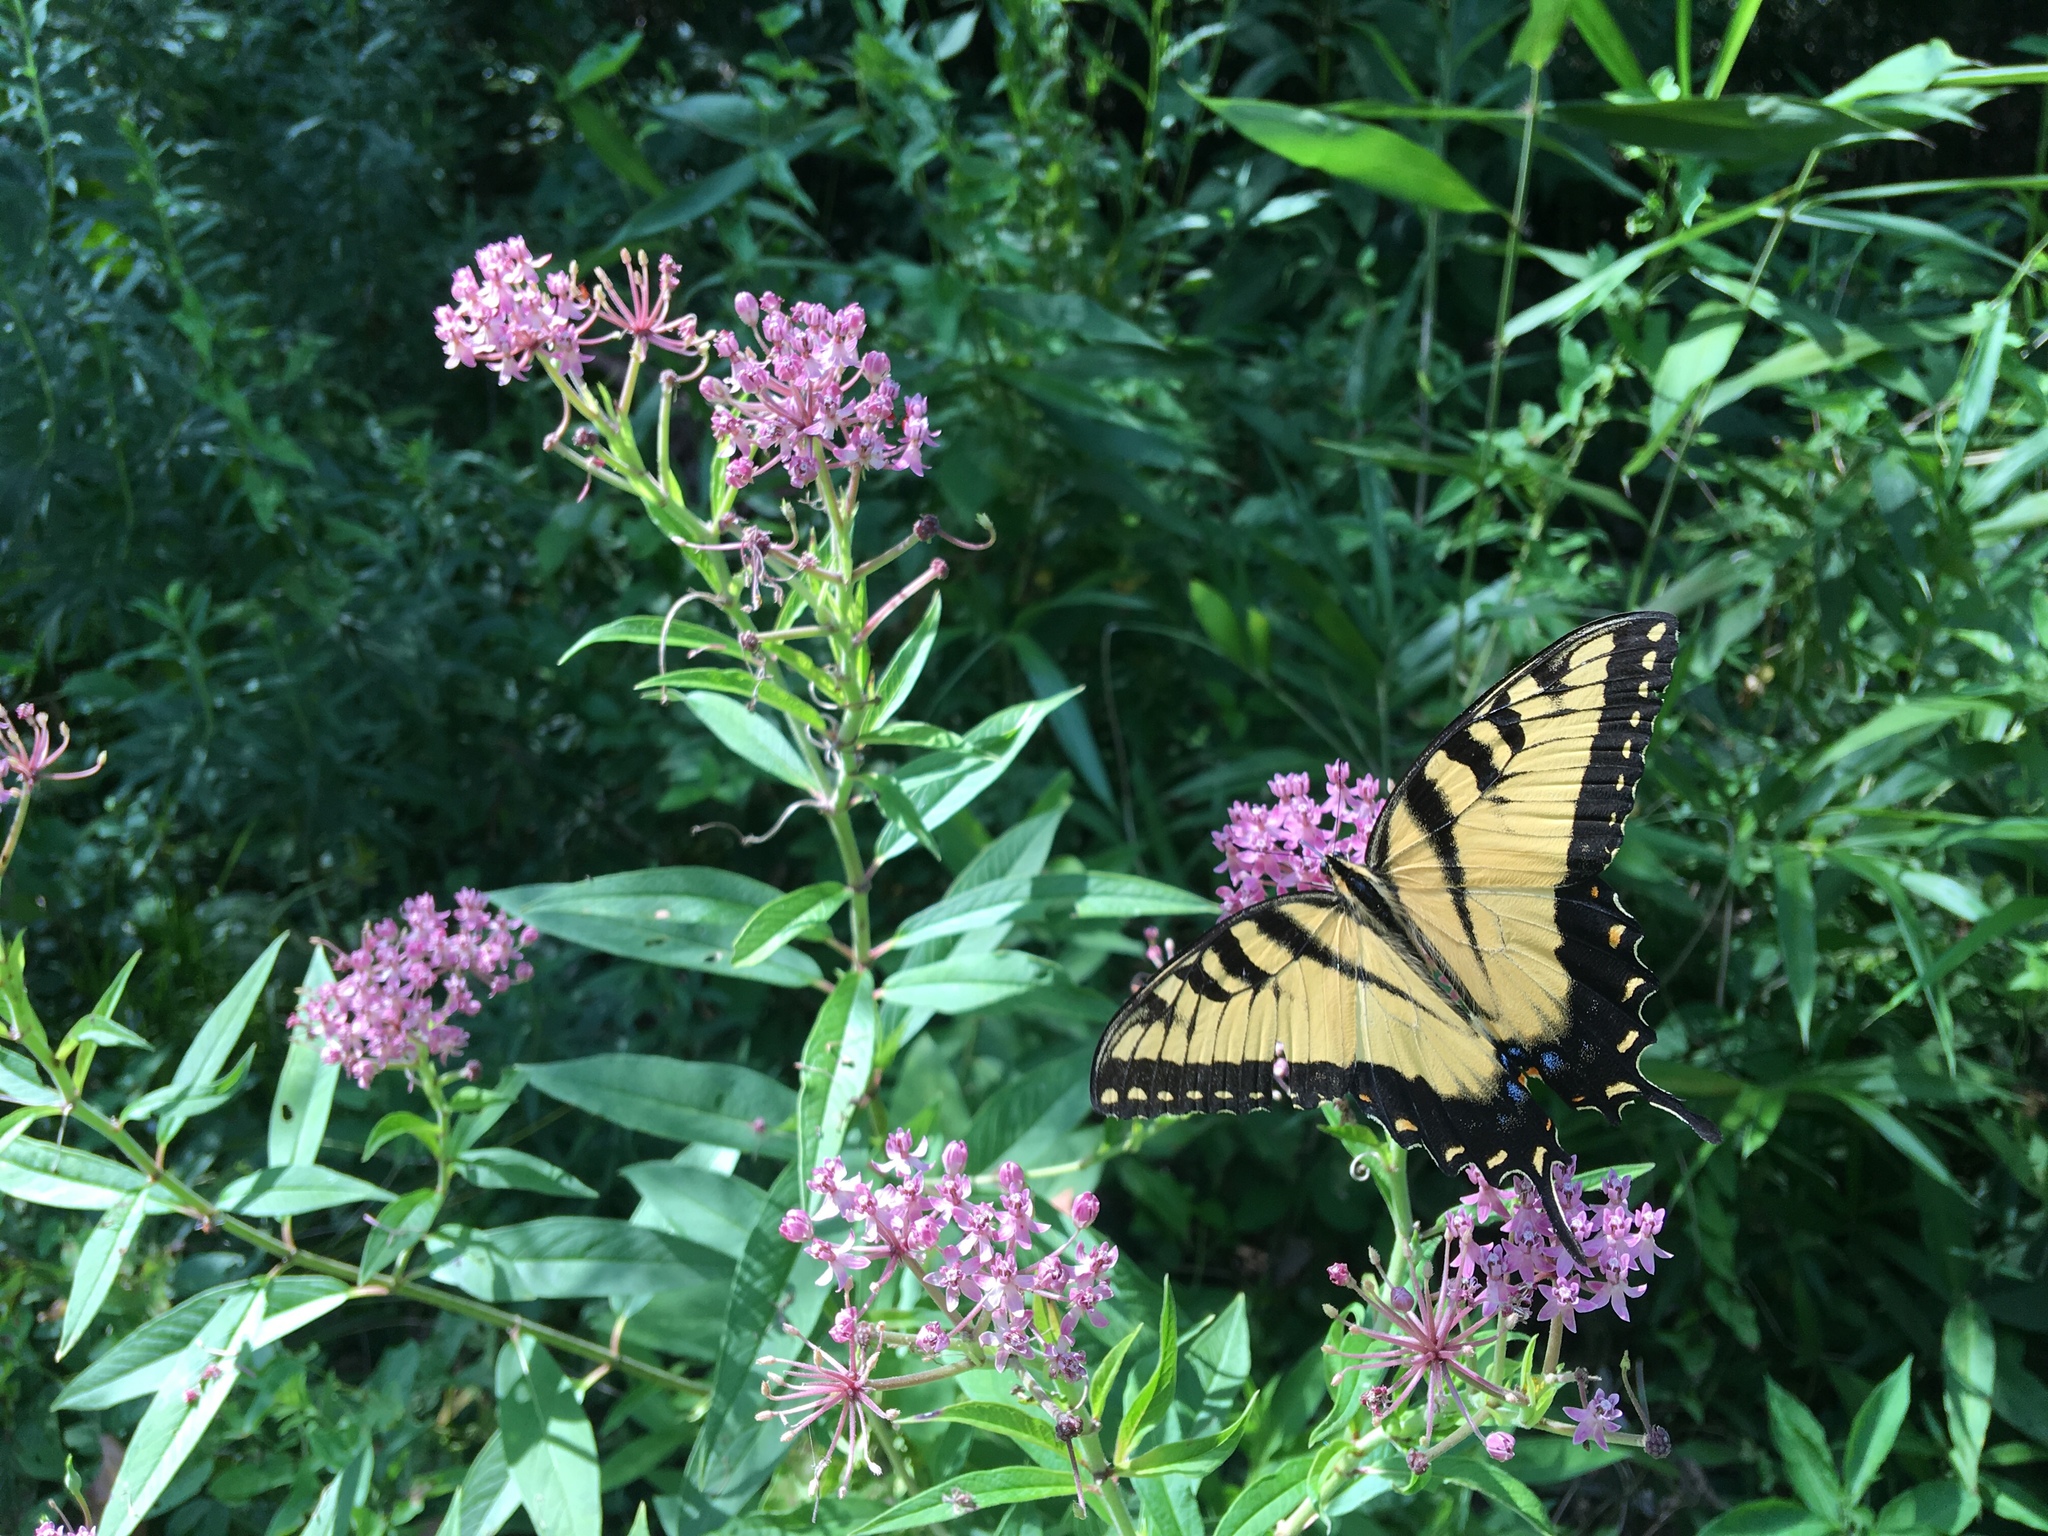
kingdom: Animalia
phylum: Arthropoda
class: Insecta
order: Lepidoptera
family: Papilionidae
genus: Papilio
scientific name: Papilio glaucus
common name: Tiger swallowtail
